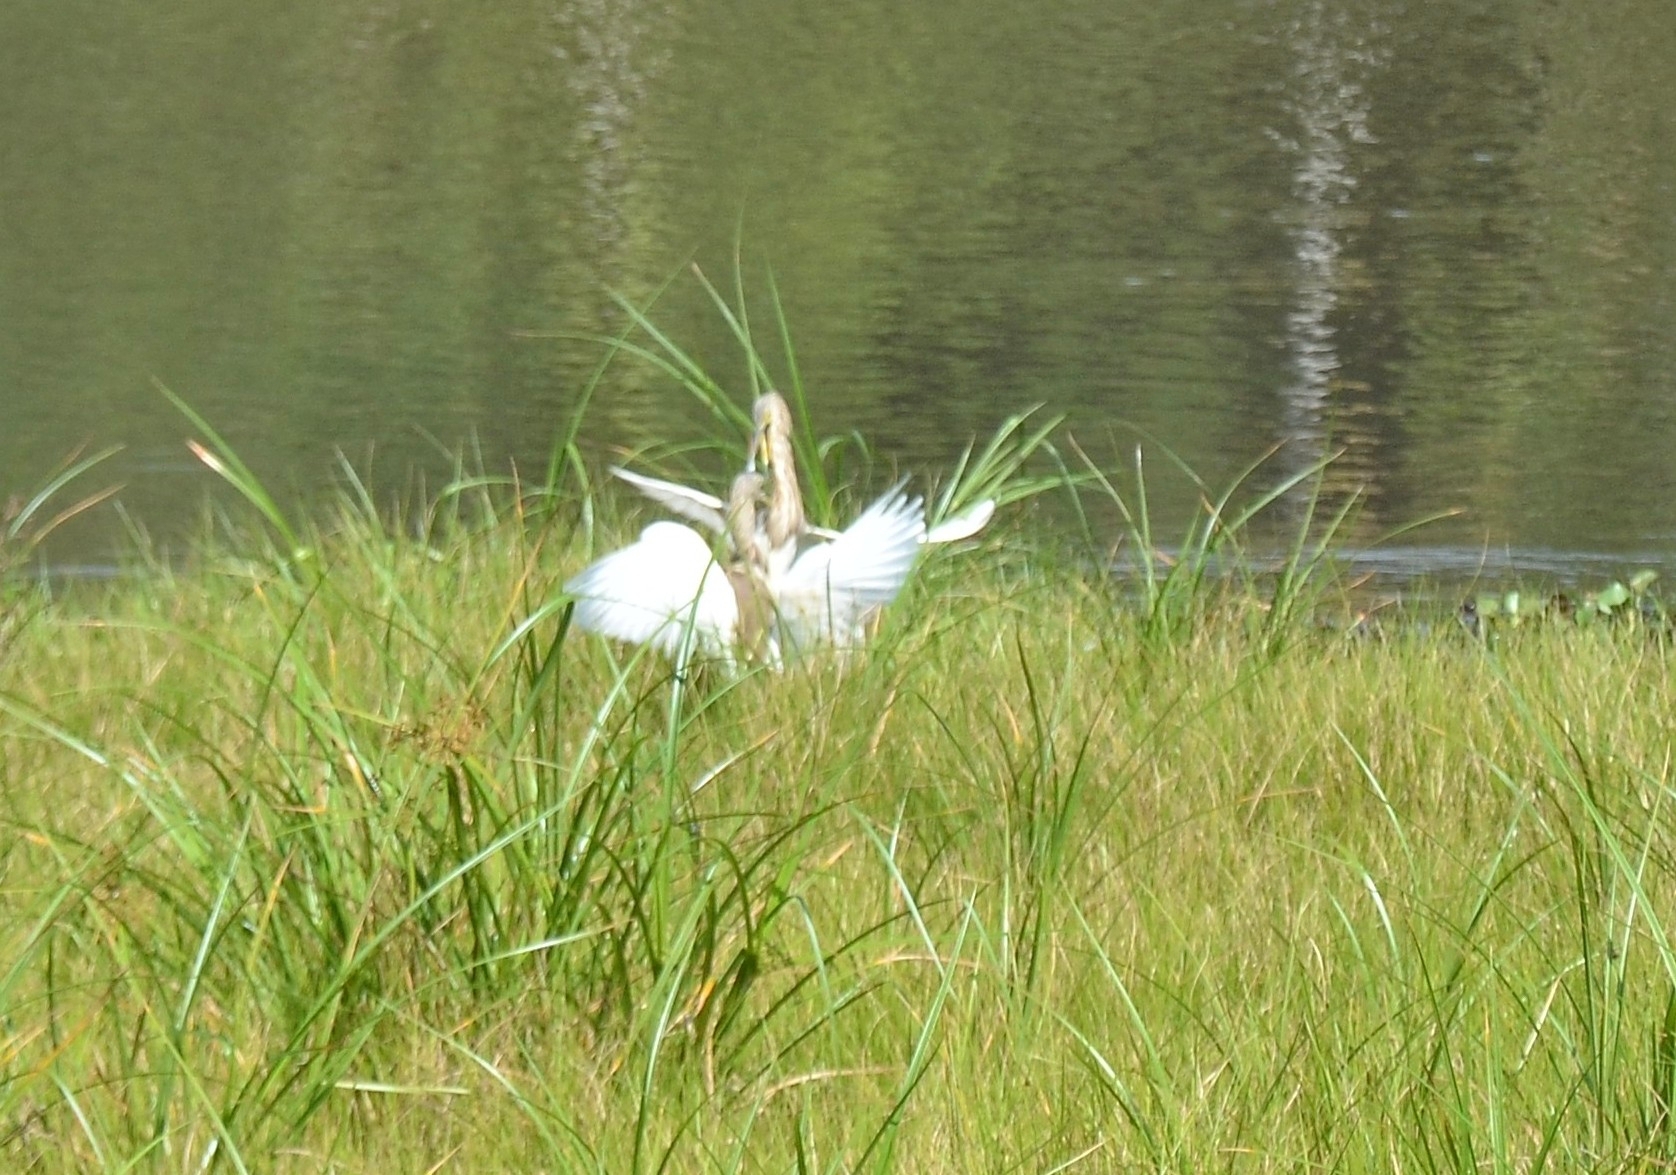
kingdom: Animalia
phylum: Chordata
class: Aves
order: Pelecaniformes
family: Ardeidae
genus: Ardeola
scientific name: Ardeola grayii
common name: Indian pond heron
